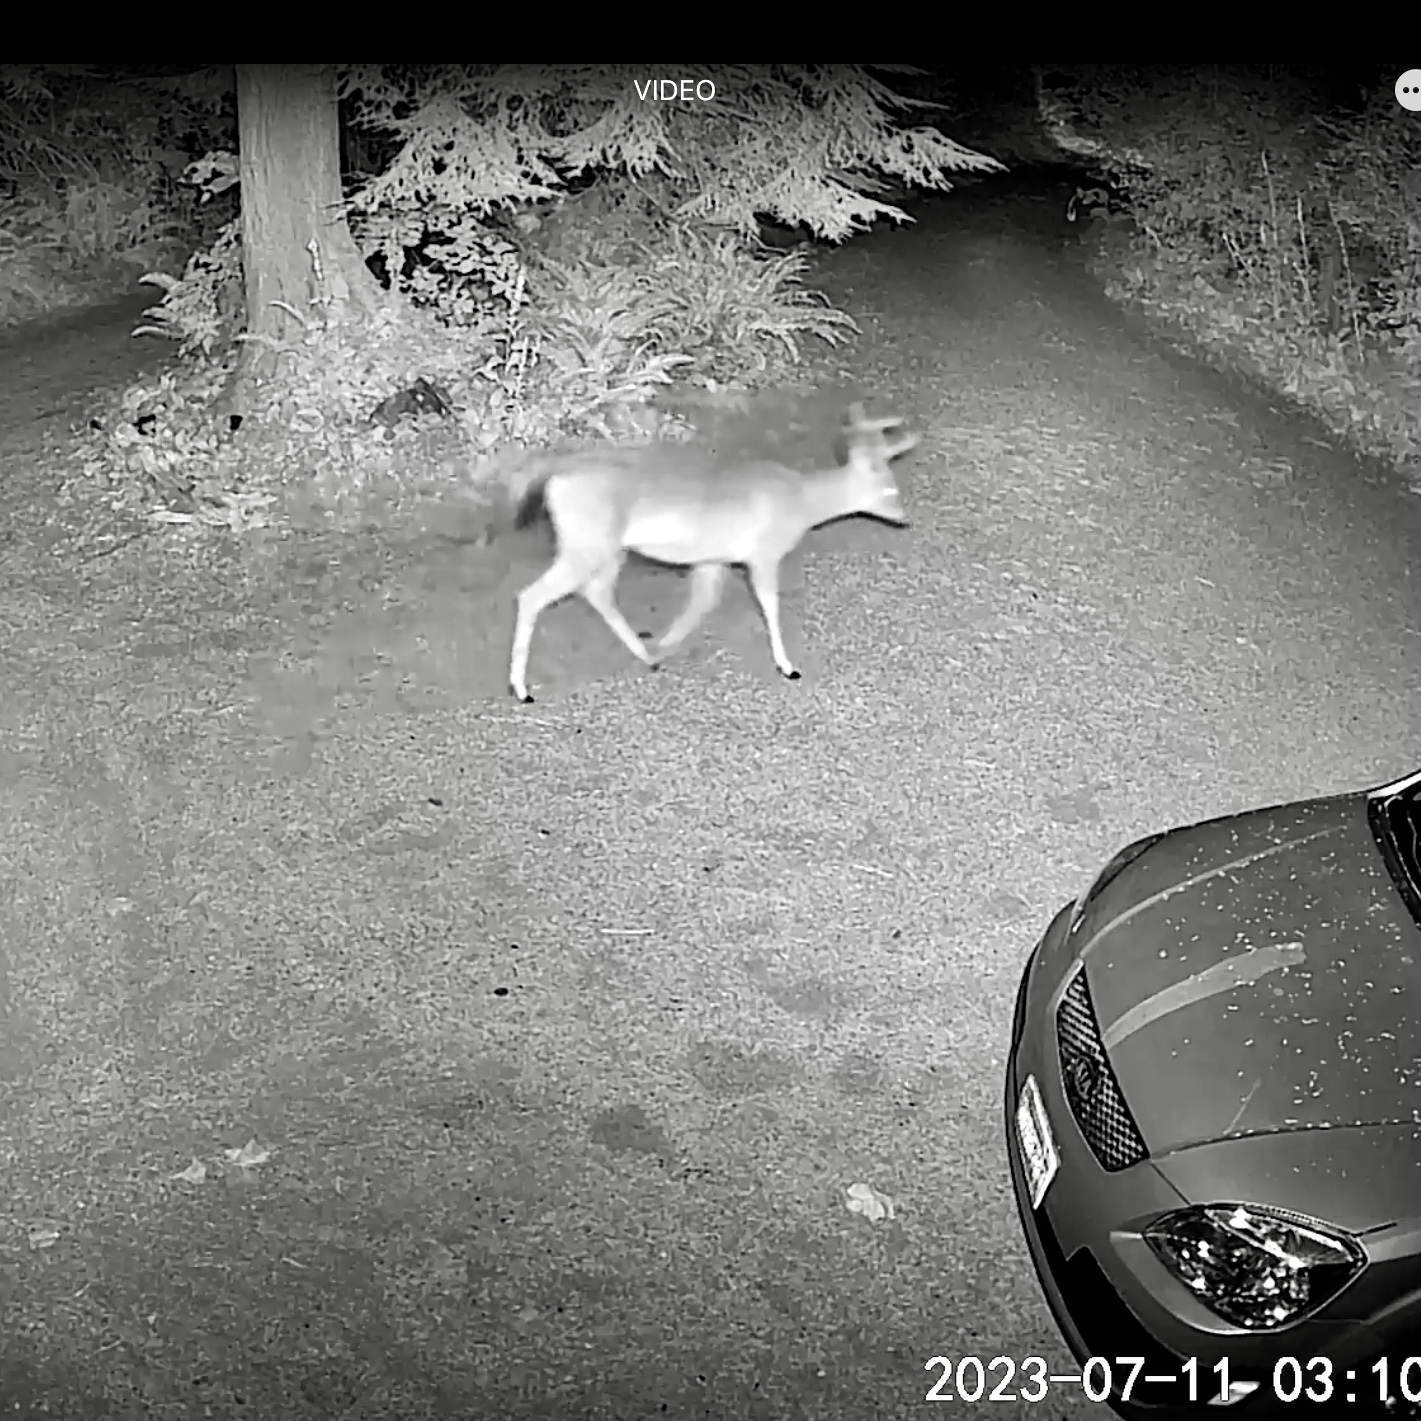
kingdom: Animalia
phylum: Chordata
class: Mammalia
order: Artiodactyla
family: Cervidae
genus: Odocoileus
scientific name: Odocoileus hemionus
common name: Mule deer
